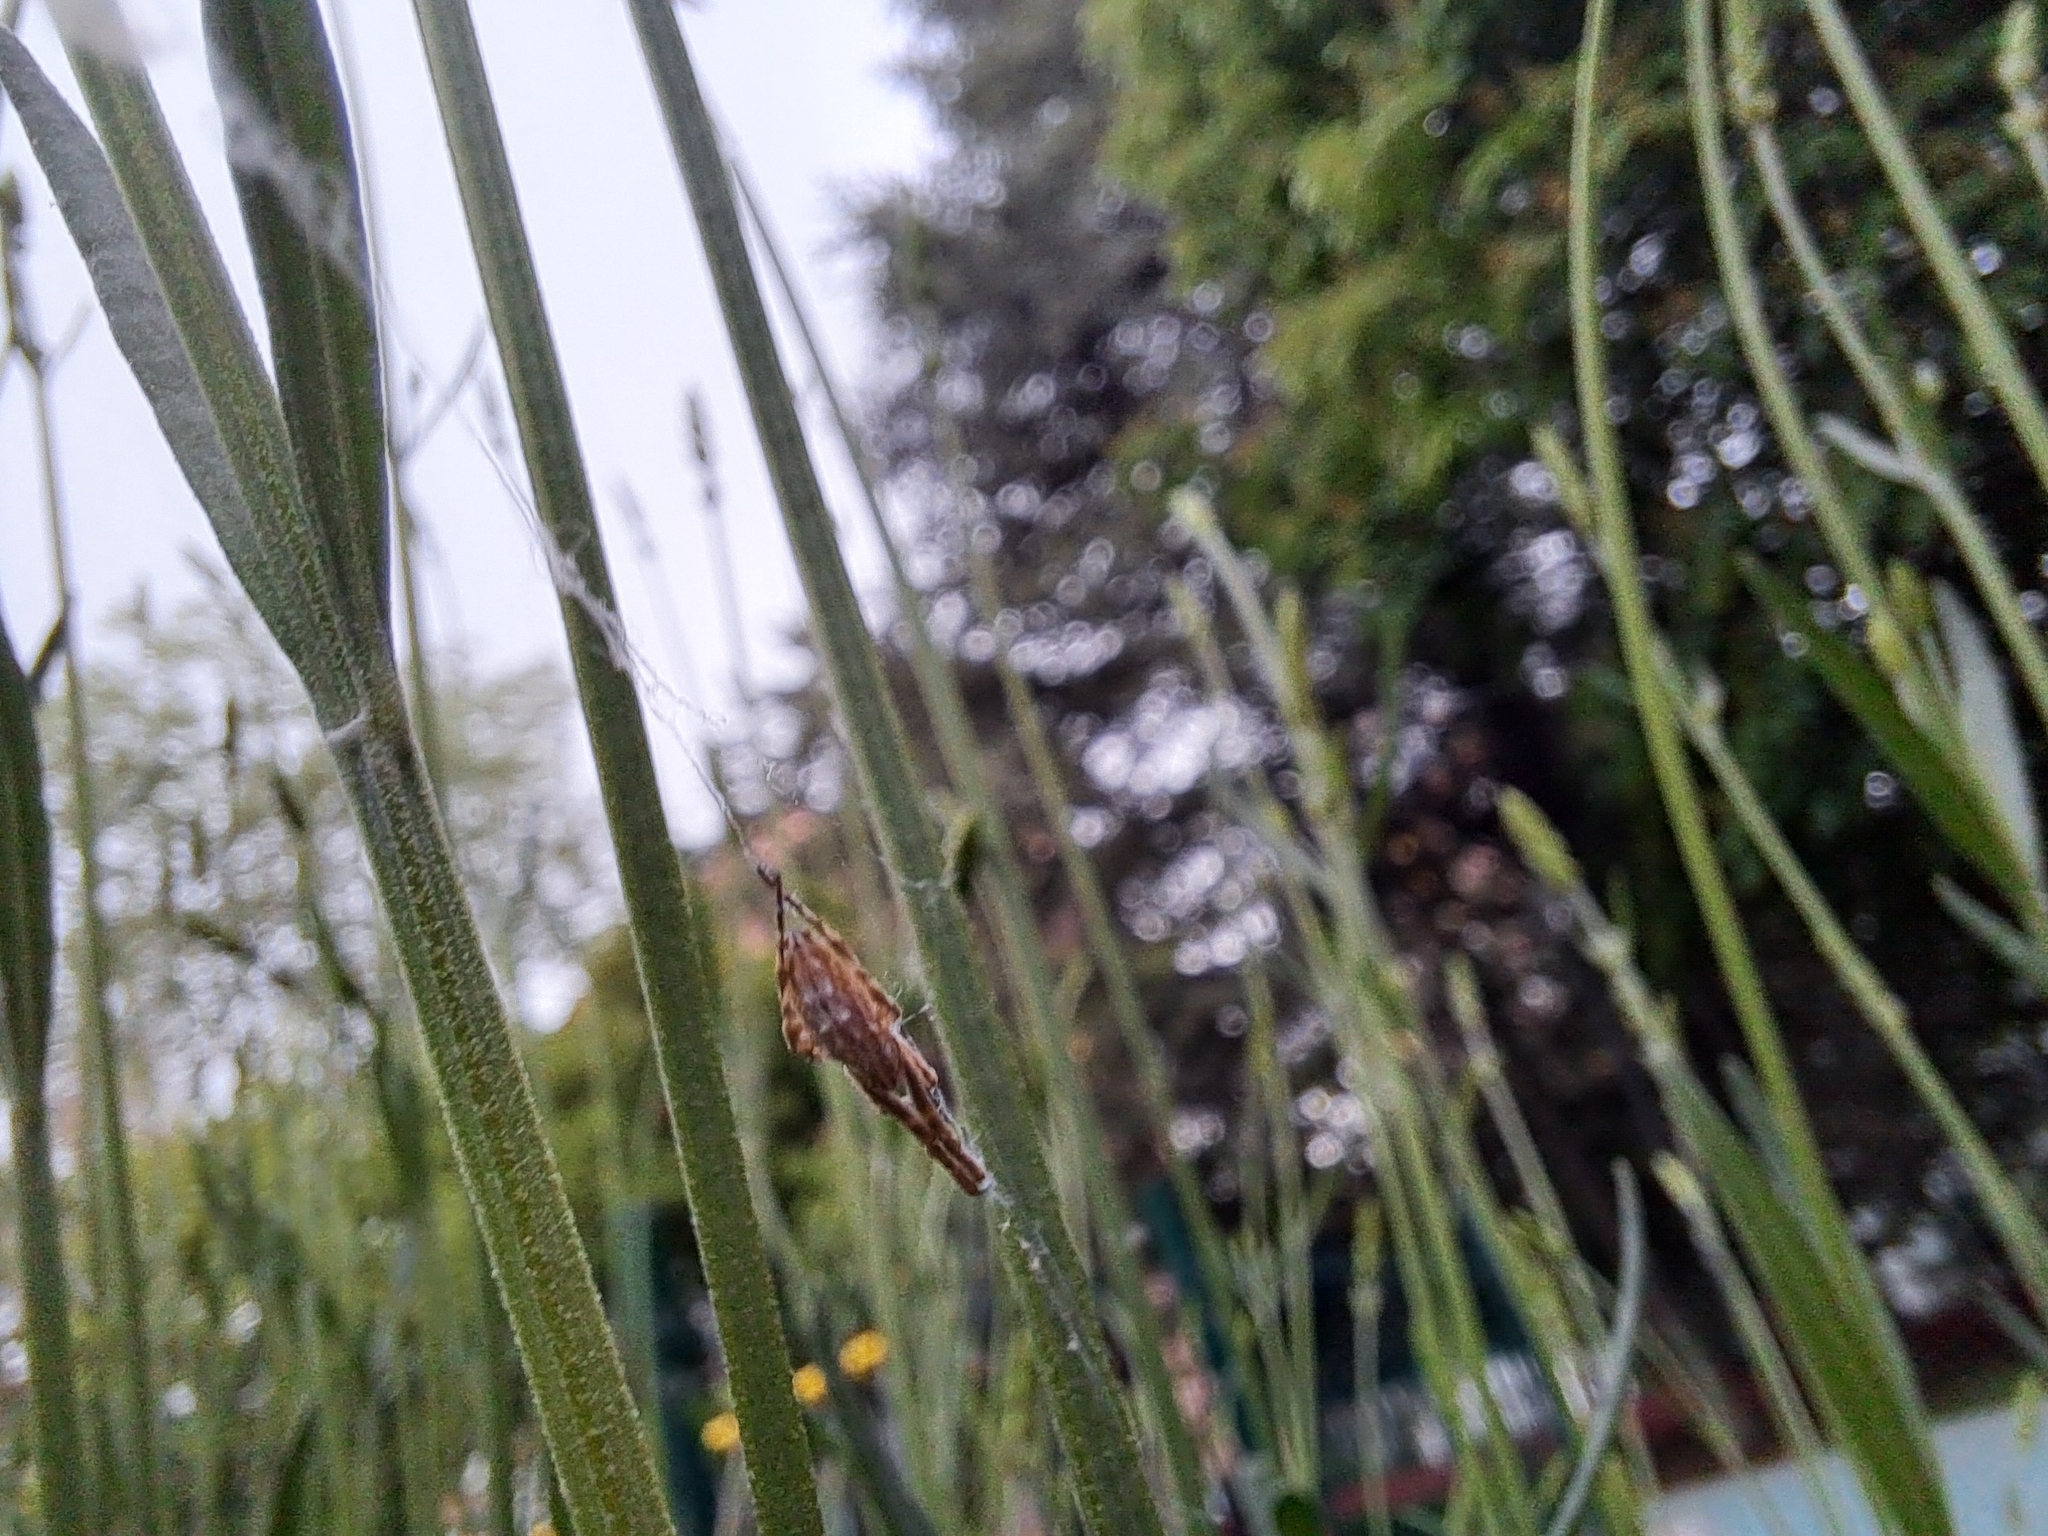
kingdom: Animalia
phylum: Arthropoda
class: Arachnida
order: Araneae
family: Uloboridae
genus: Uloborus
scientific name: Uloborus walckenaerius
